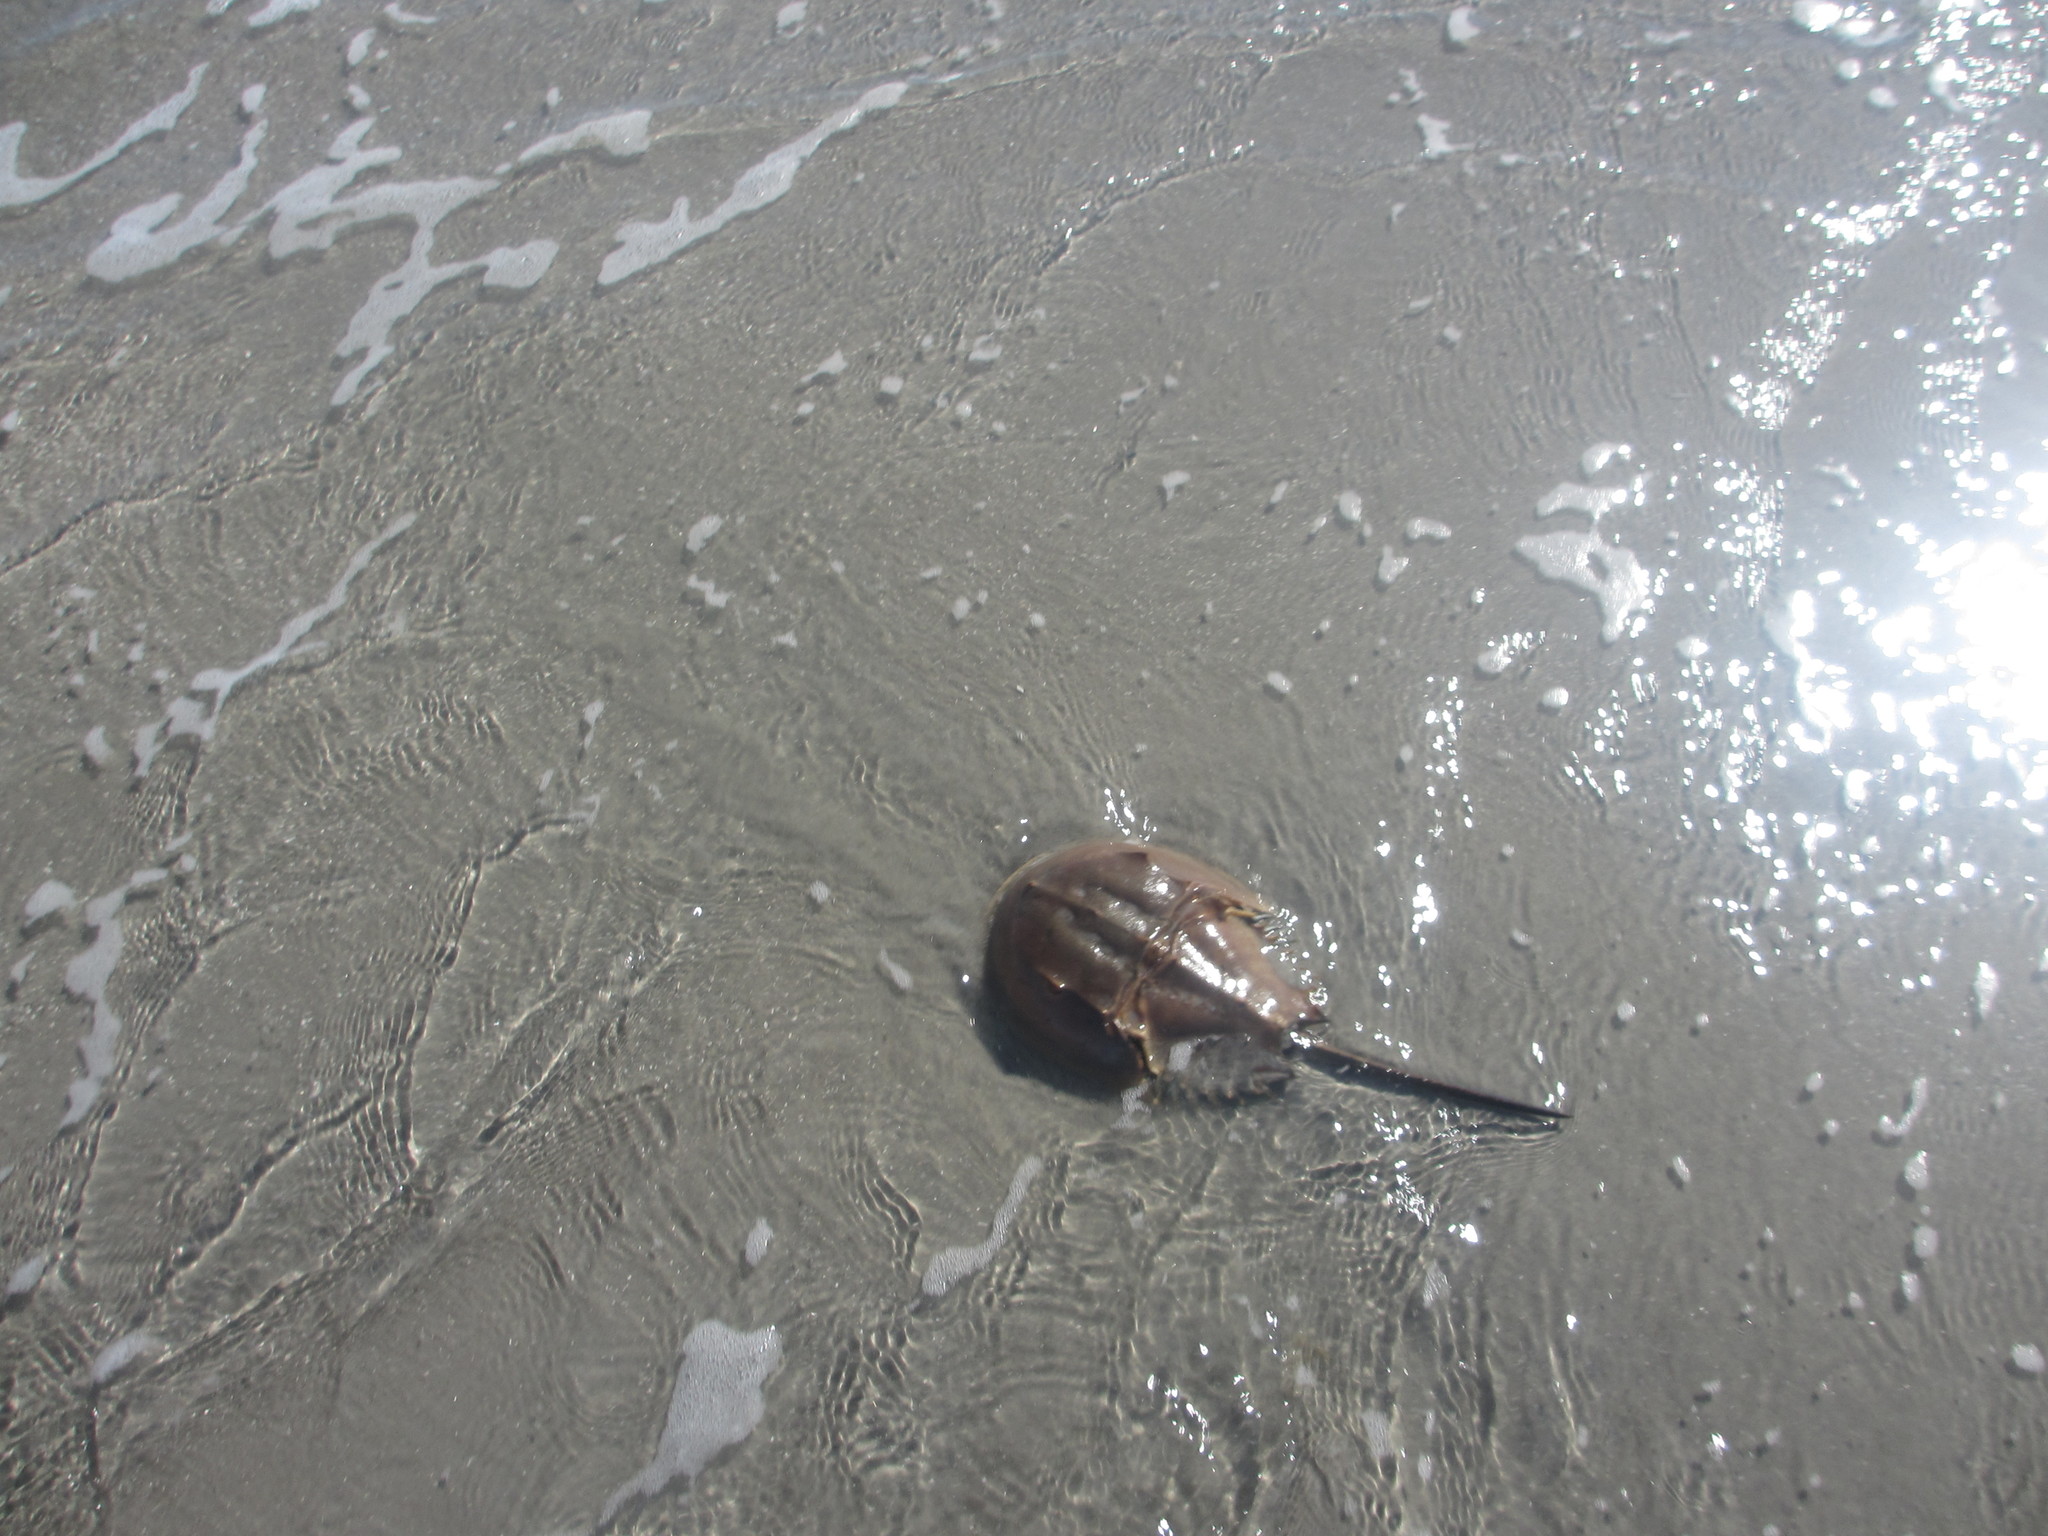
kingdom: Animalia
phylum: Arthropoda
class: Merostomata
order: Xiphosurida
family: Limulidae
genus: Limulus
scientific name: Limulus polyphemus
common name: Horseshoe crab
